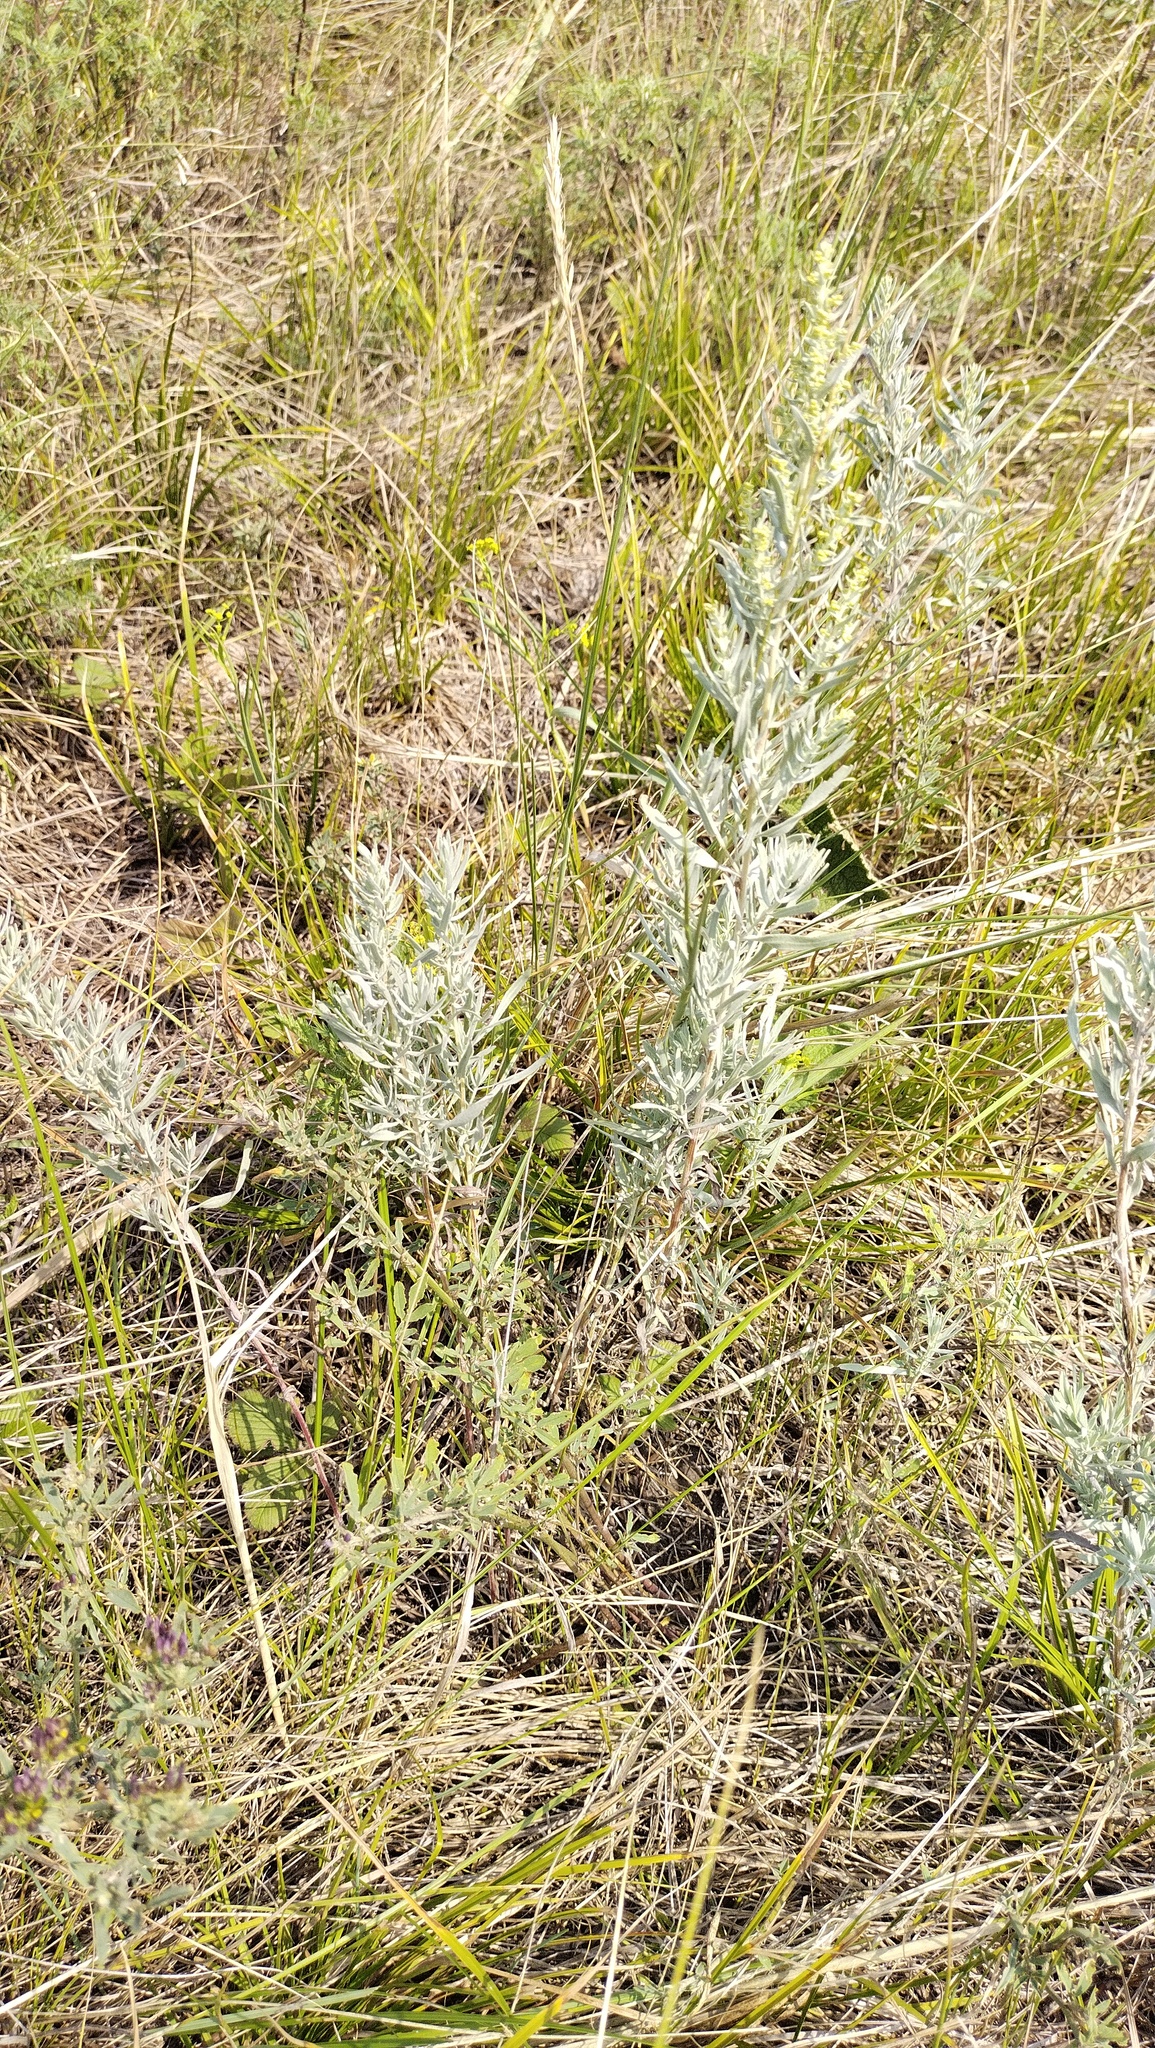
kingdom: Plantae
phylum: Tracheophyta
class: Magnoliopsida
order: Asterales
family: Asteraceae
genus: Artemisia
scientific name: Artemisia glauca
